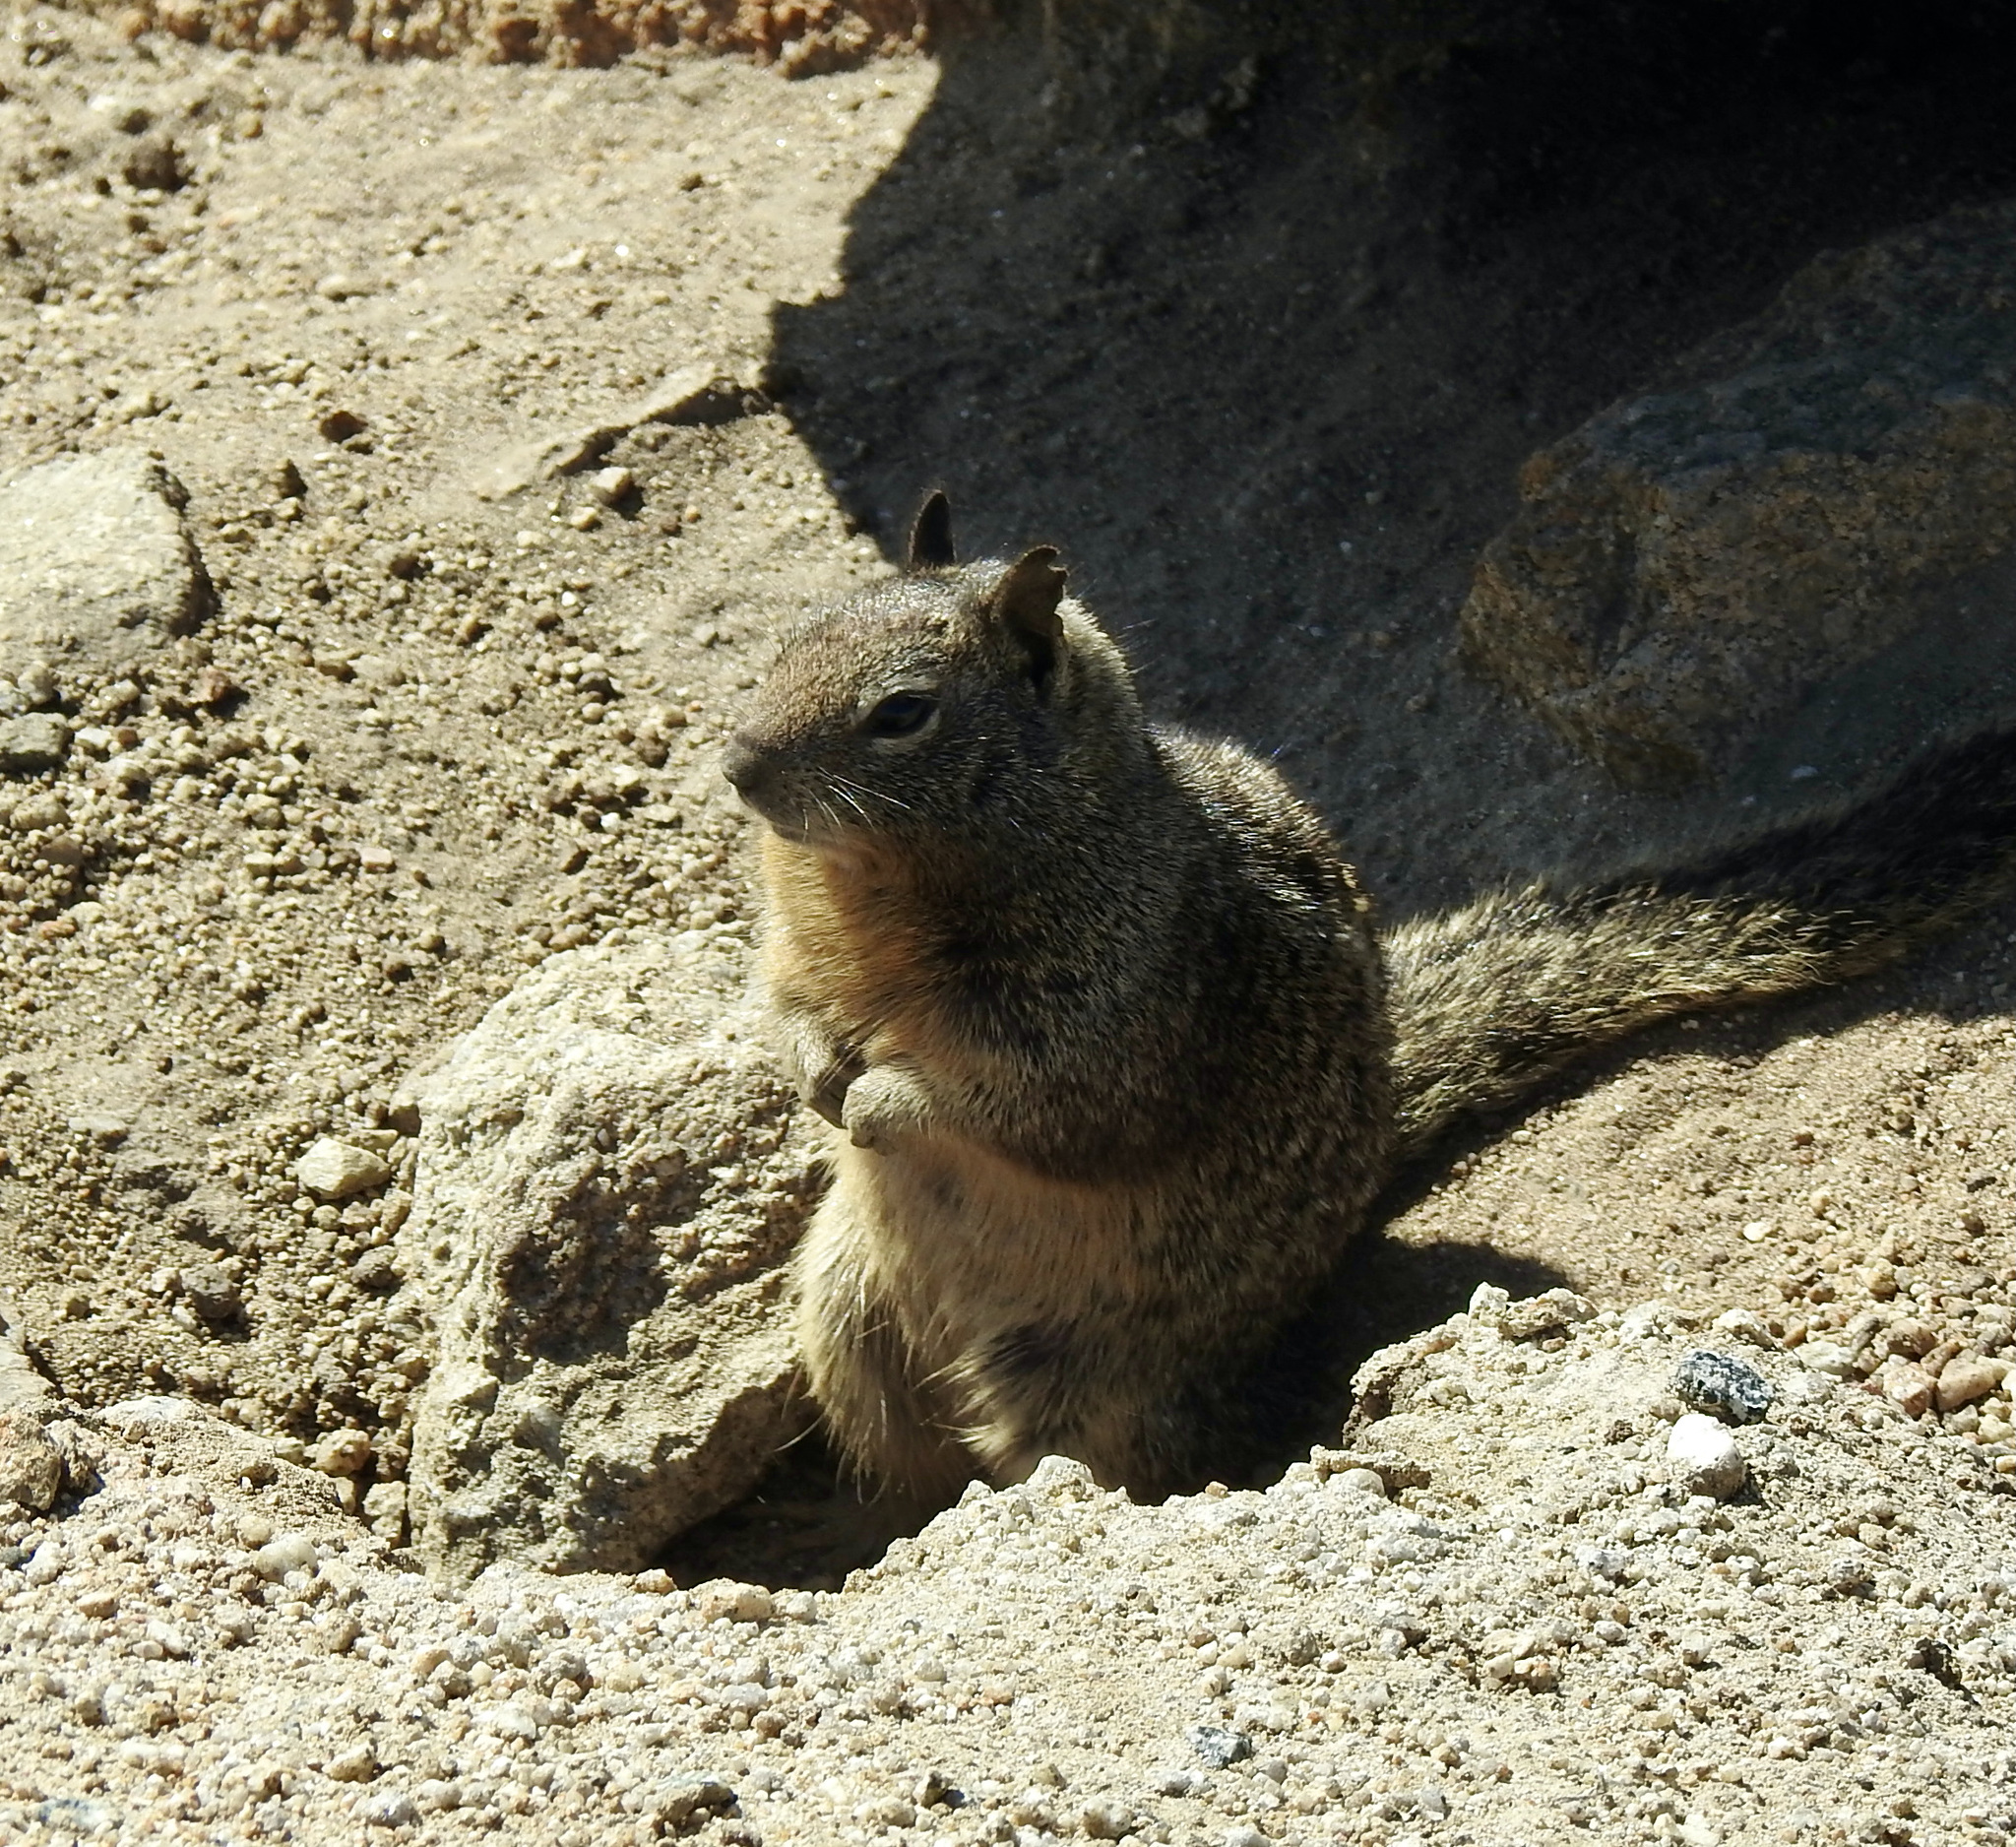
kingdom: Animalia
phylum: Chordata
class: Mammalia
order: Rodentia
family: Sciuridae
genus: Otospermophilus
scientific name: Otospermophilus beecheyi
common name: California ground squirrel
